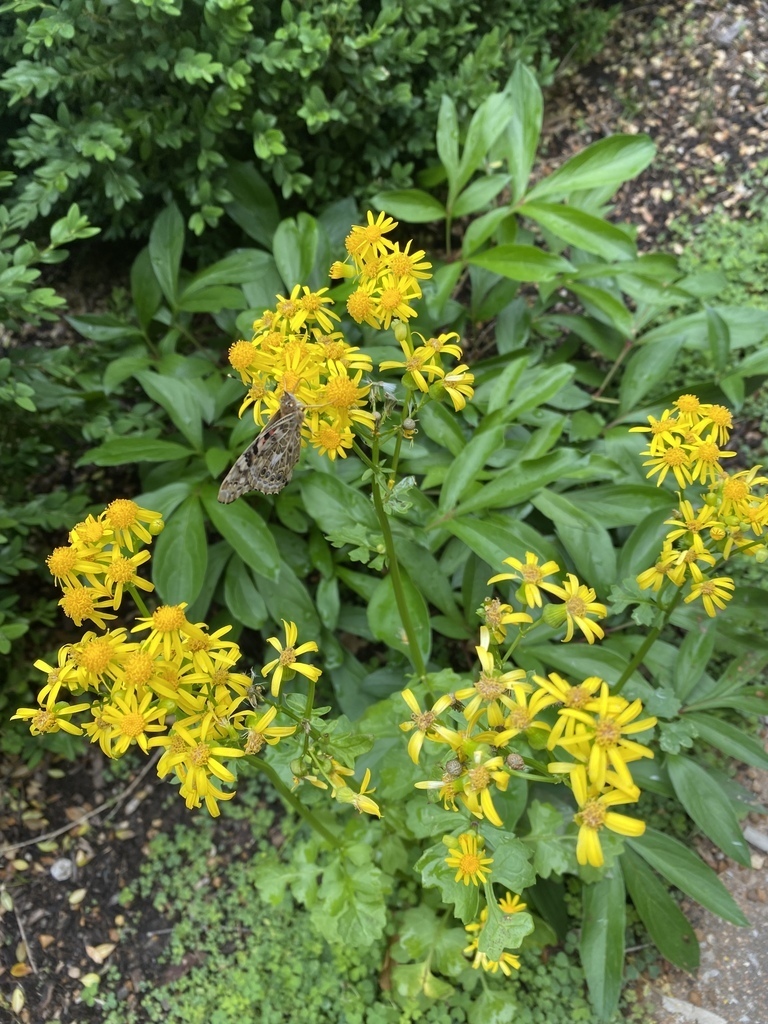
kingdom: Animalia
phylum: Arthropoda
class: Insecta
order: Lepidoptera
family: Nymphalidae
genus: Vanessa
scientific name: Vanessa cardui
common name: Painted lady
